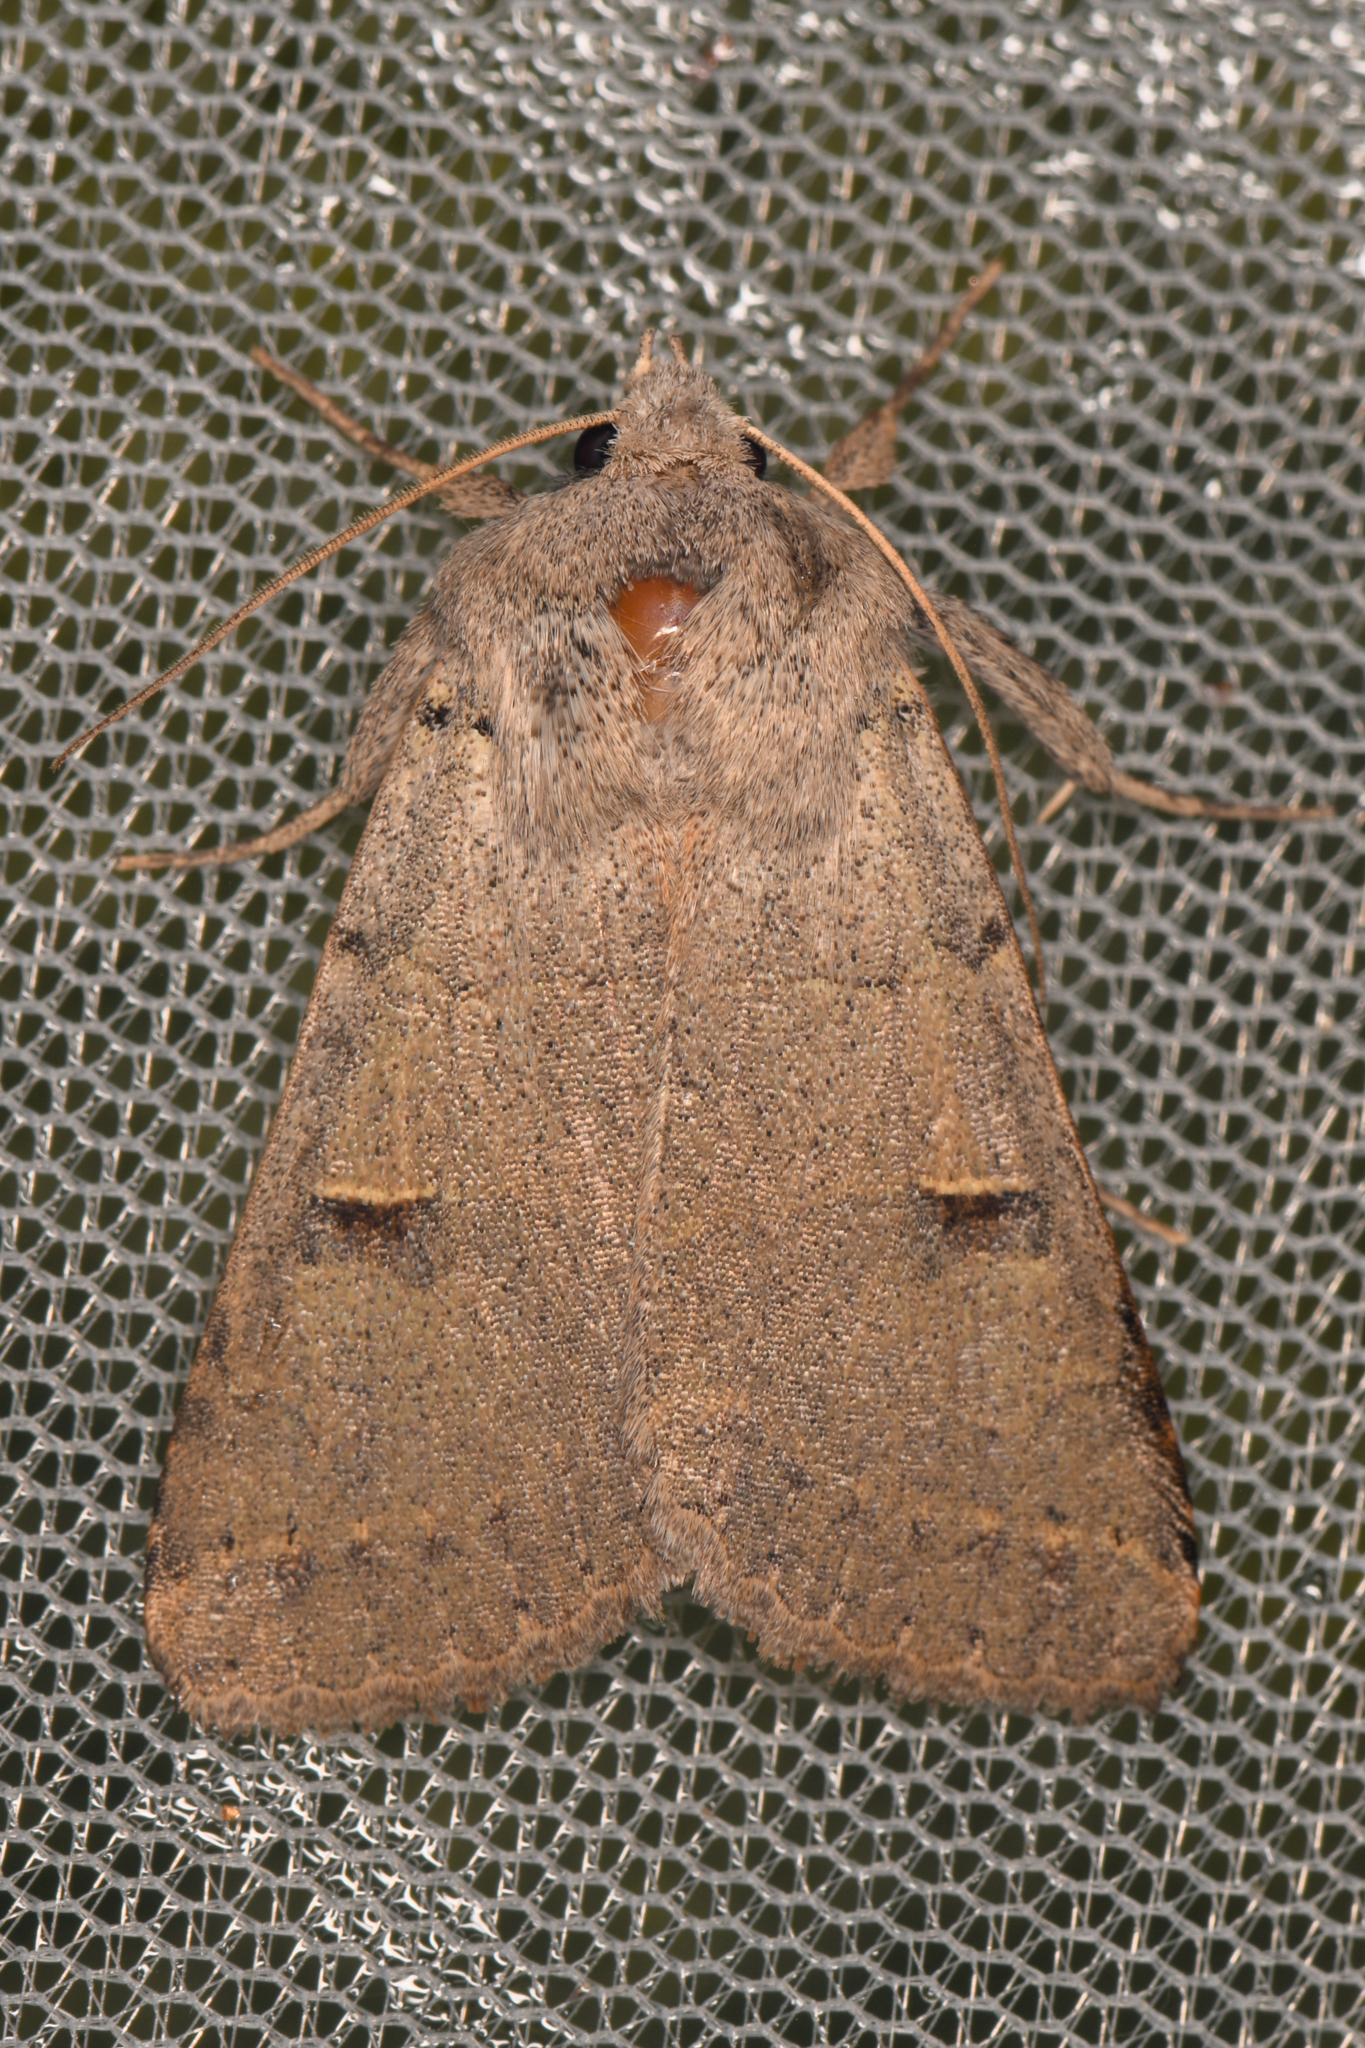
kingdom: Animalia
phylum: Arthropoda
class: Insecta
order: Lepidoptera
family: Erebidae
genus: Cissusa
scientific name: Cissusa indiscreta
